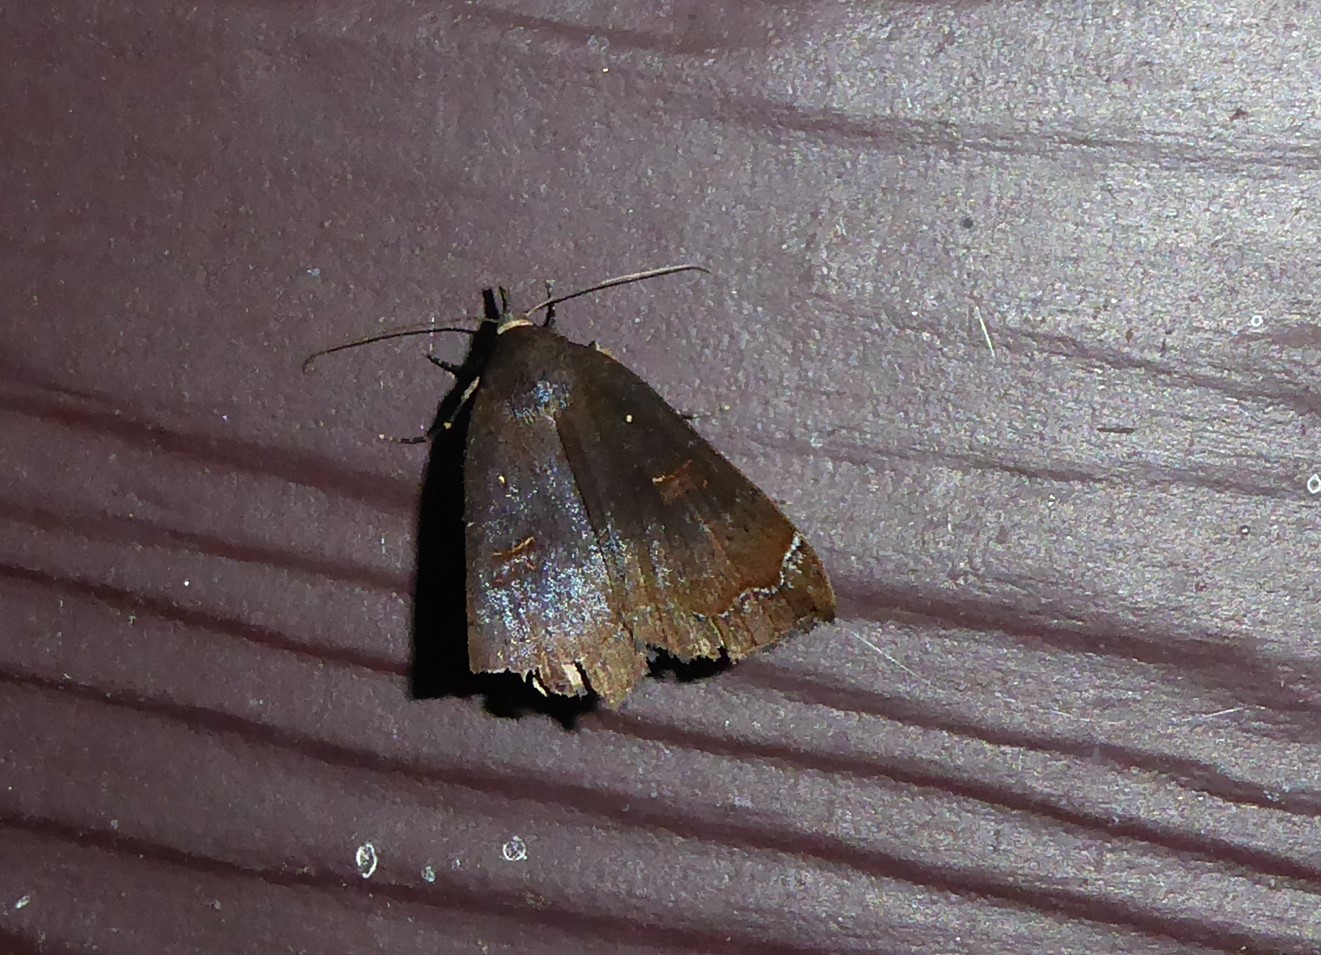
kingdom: Animalia
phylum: Arthropoda
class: Insecta
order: Lepidoptera
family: Erebidae
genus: Rhapsa
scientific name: Rhapsa scotosialis
